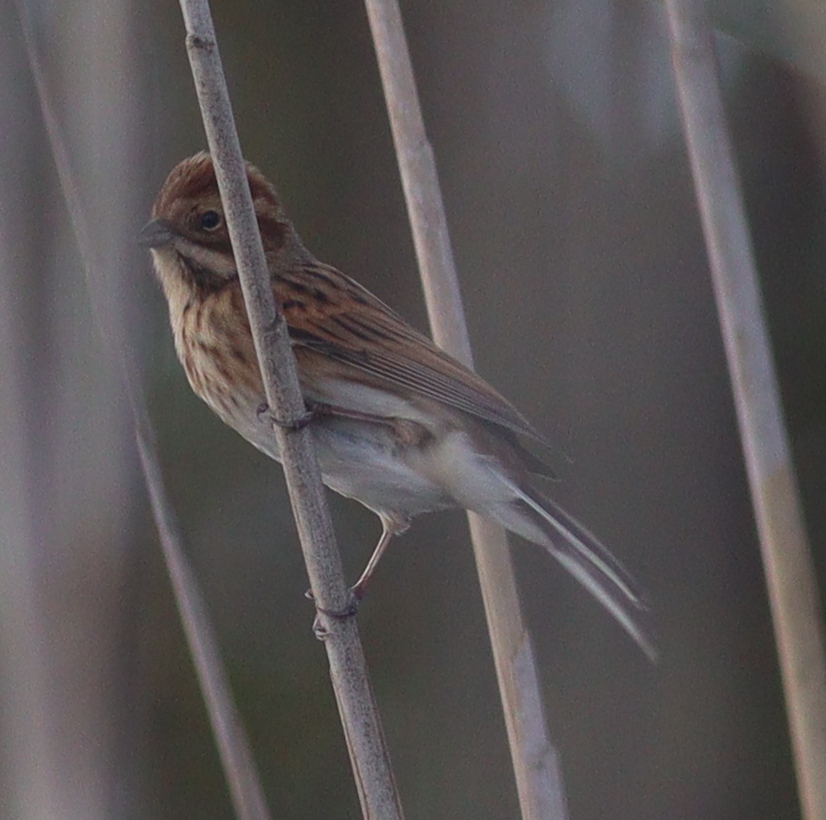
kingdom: Animalia
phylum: Chordata
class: Aves
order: Passeriformes
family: Emberizidae
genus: Emberiza
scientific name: Emberiza schoeniclus
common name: Reed bunting
